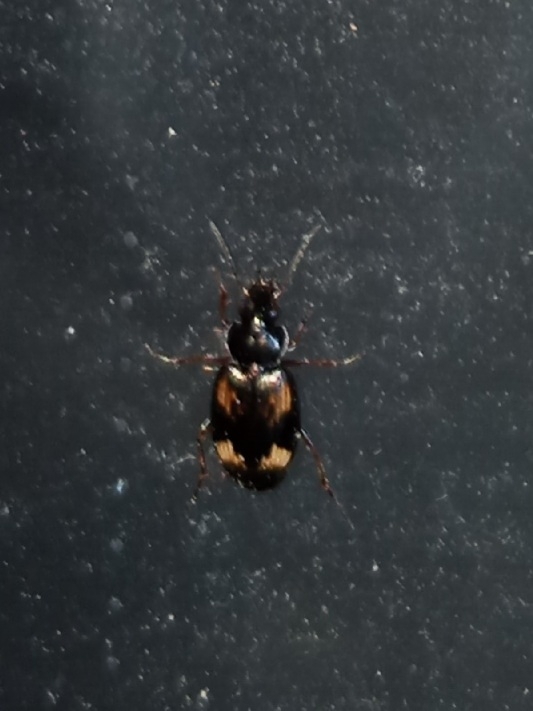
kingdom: Animalia
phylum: Arthropoda
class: Insecta
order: Coleoptera
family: Carabidae
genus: Tetragonoderus
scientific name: Tetragonoderus intersectus
